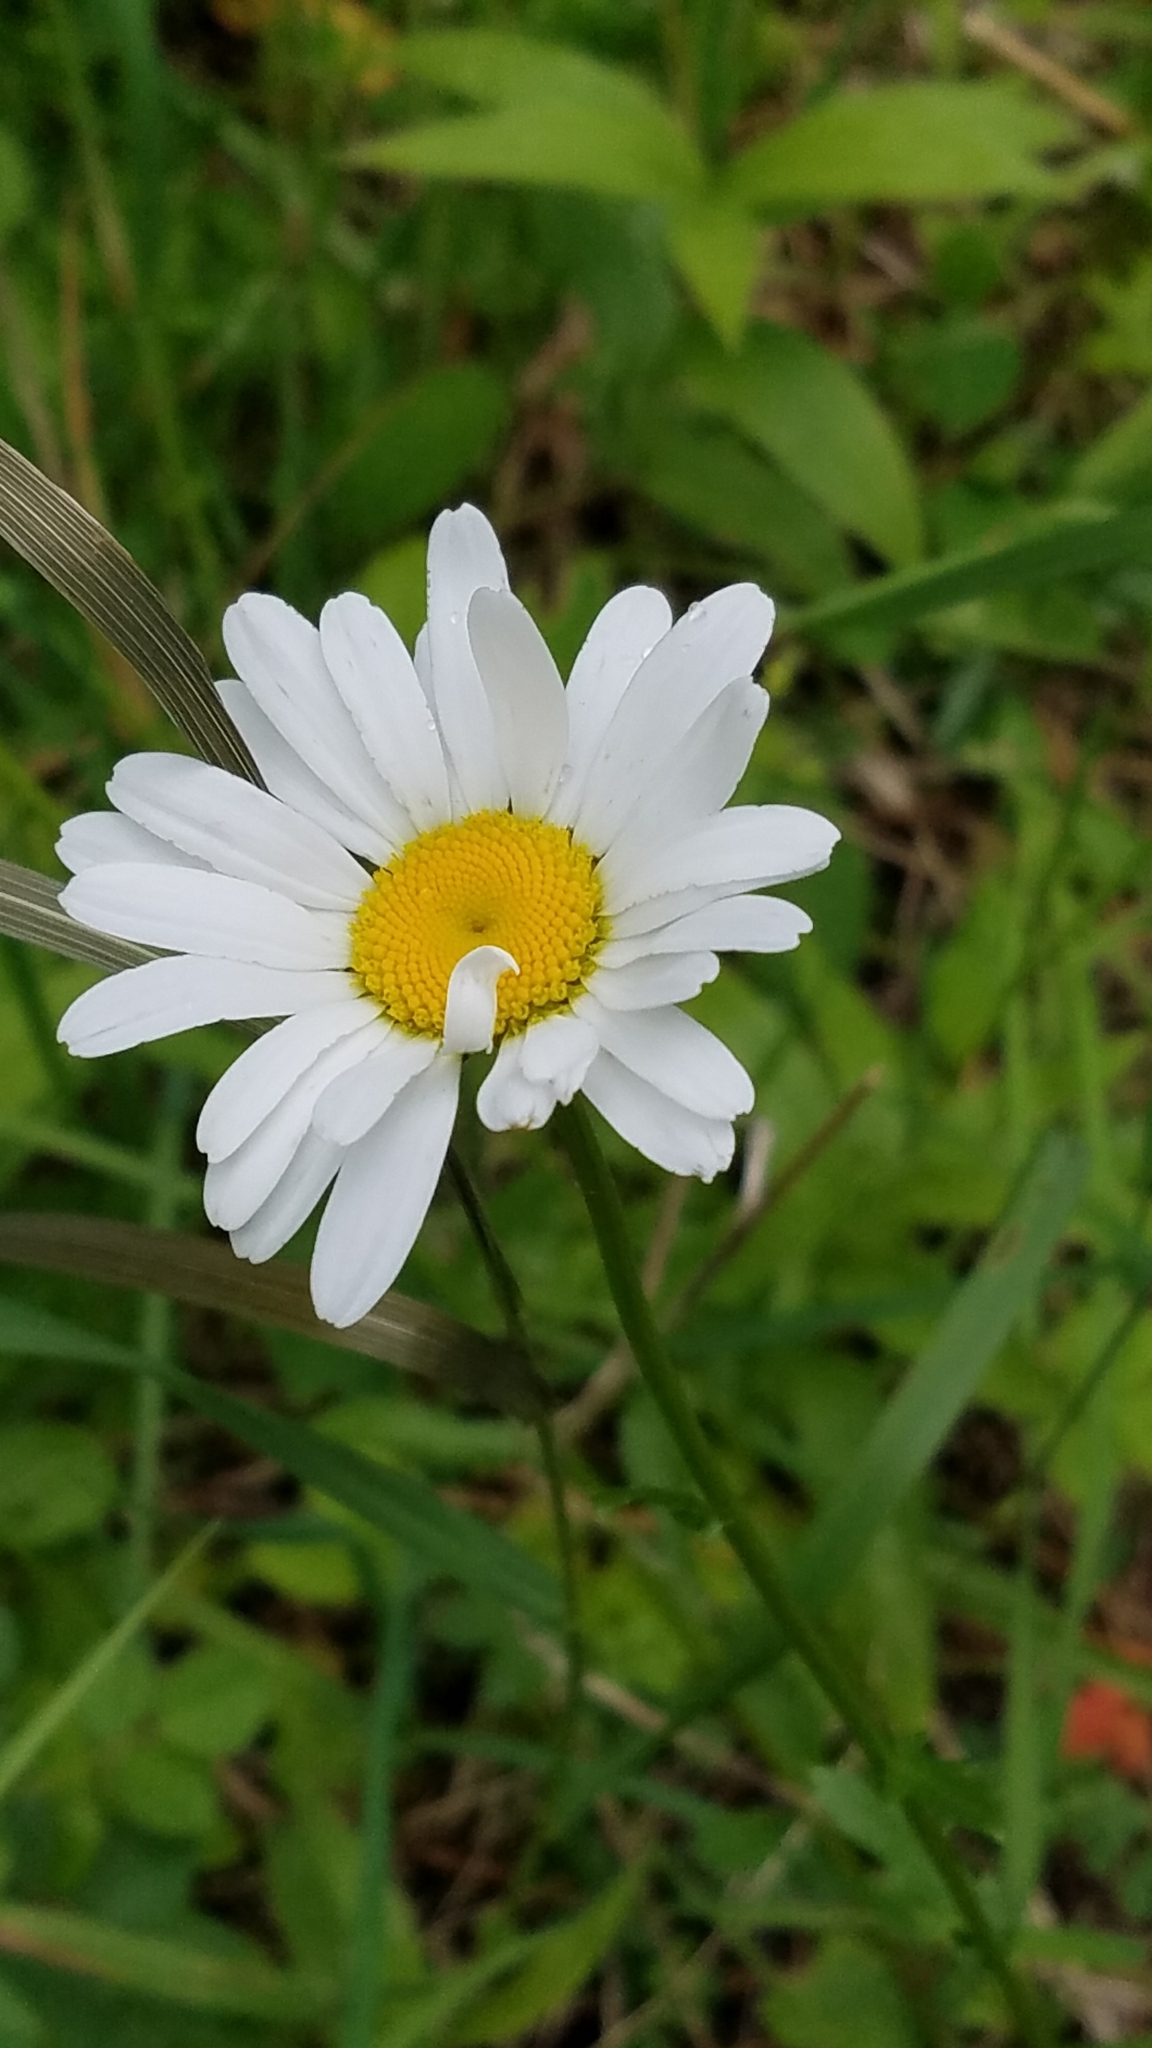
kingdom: Plantae
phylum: Tracheophyta
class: Magnoliopsida
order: Asterales
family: Asteraceae
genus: Leucanthemum
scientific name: Leucanthemum vulgare
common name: Oxeye daisy
